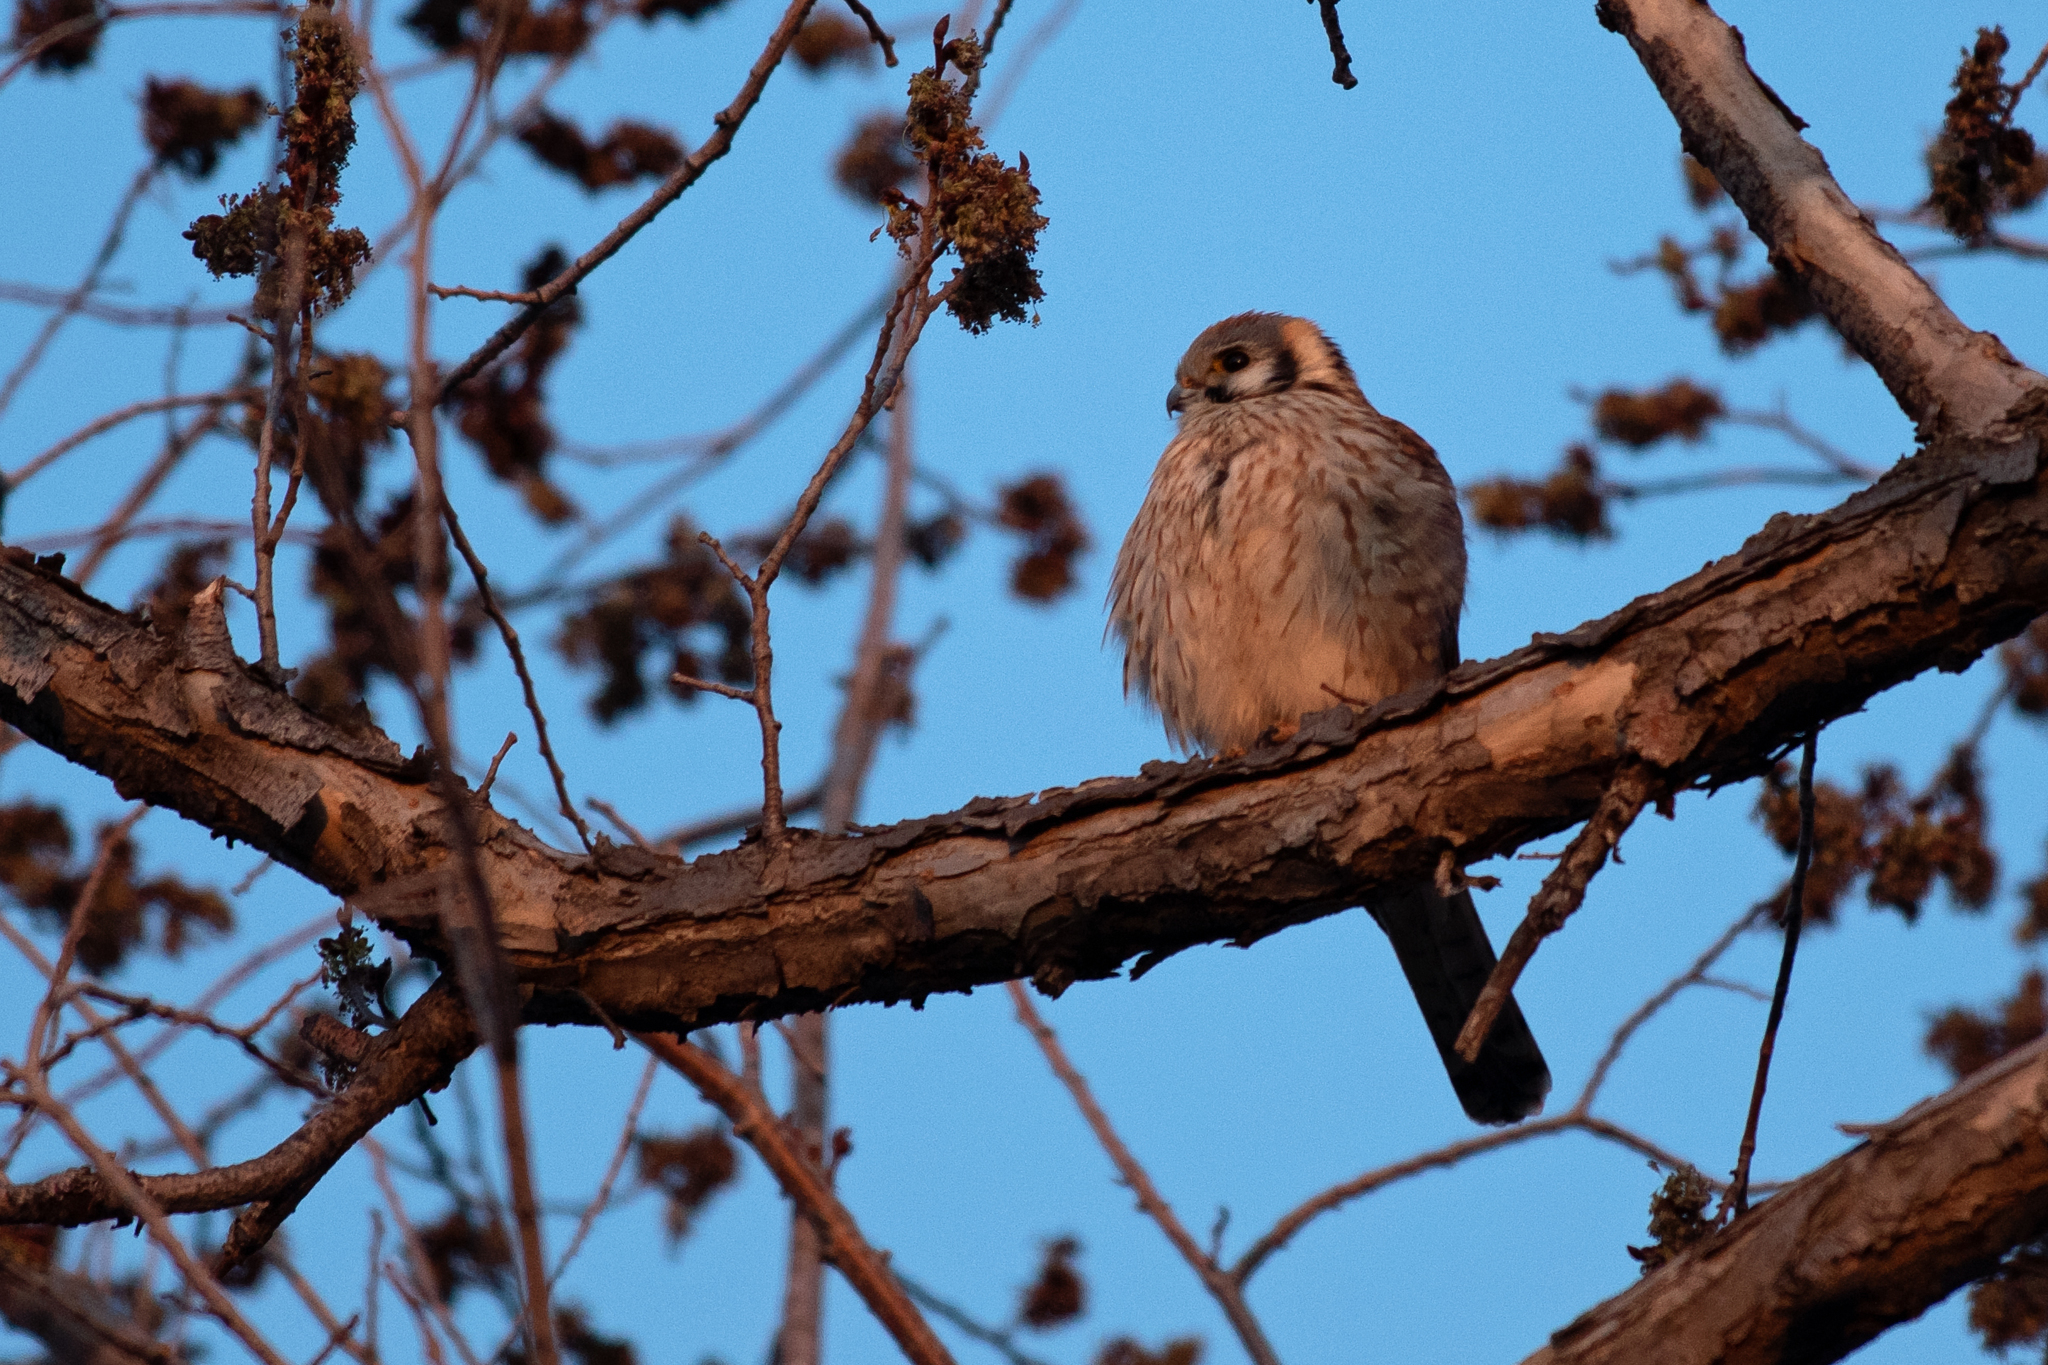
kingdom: Animalia
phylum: Chordata
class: Aves
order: Falconiformes
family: Falconidae
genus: Falco
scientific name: Falco sparverius
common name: American kestrel
